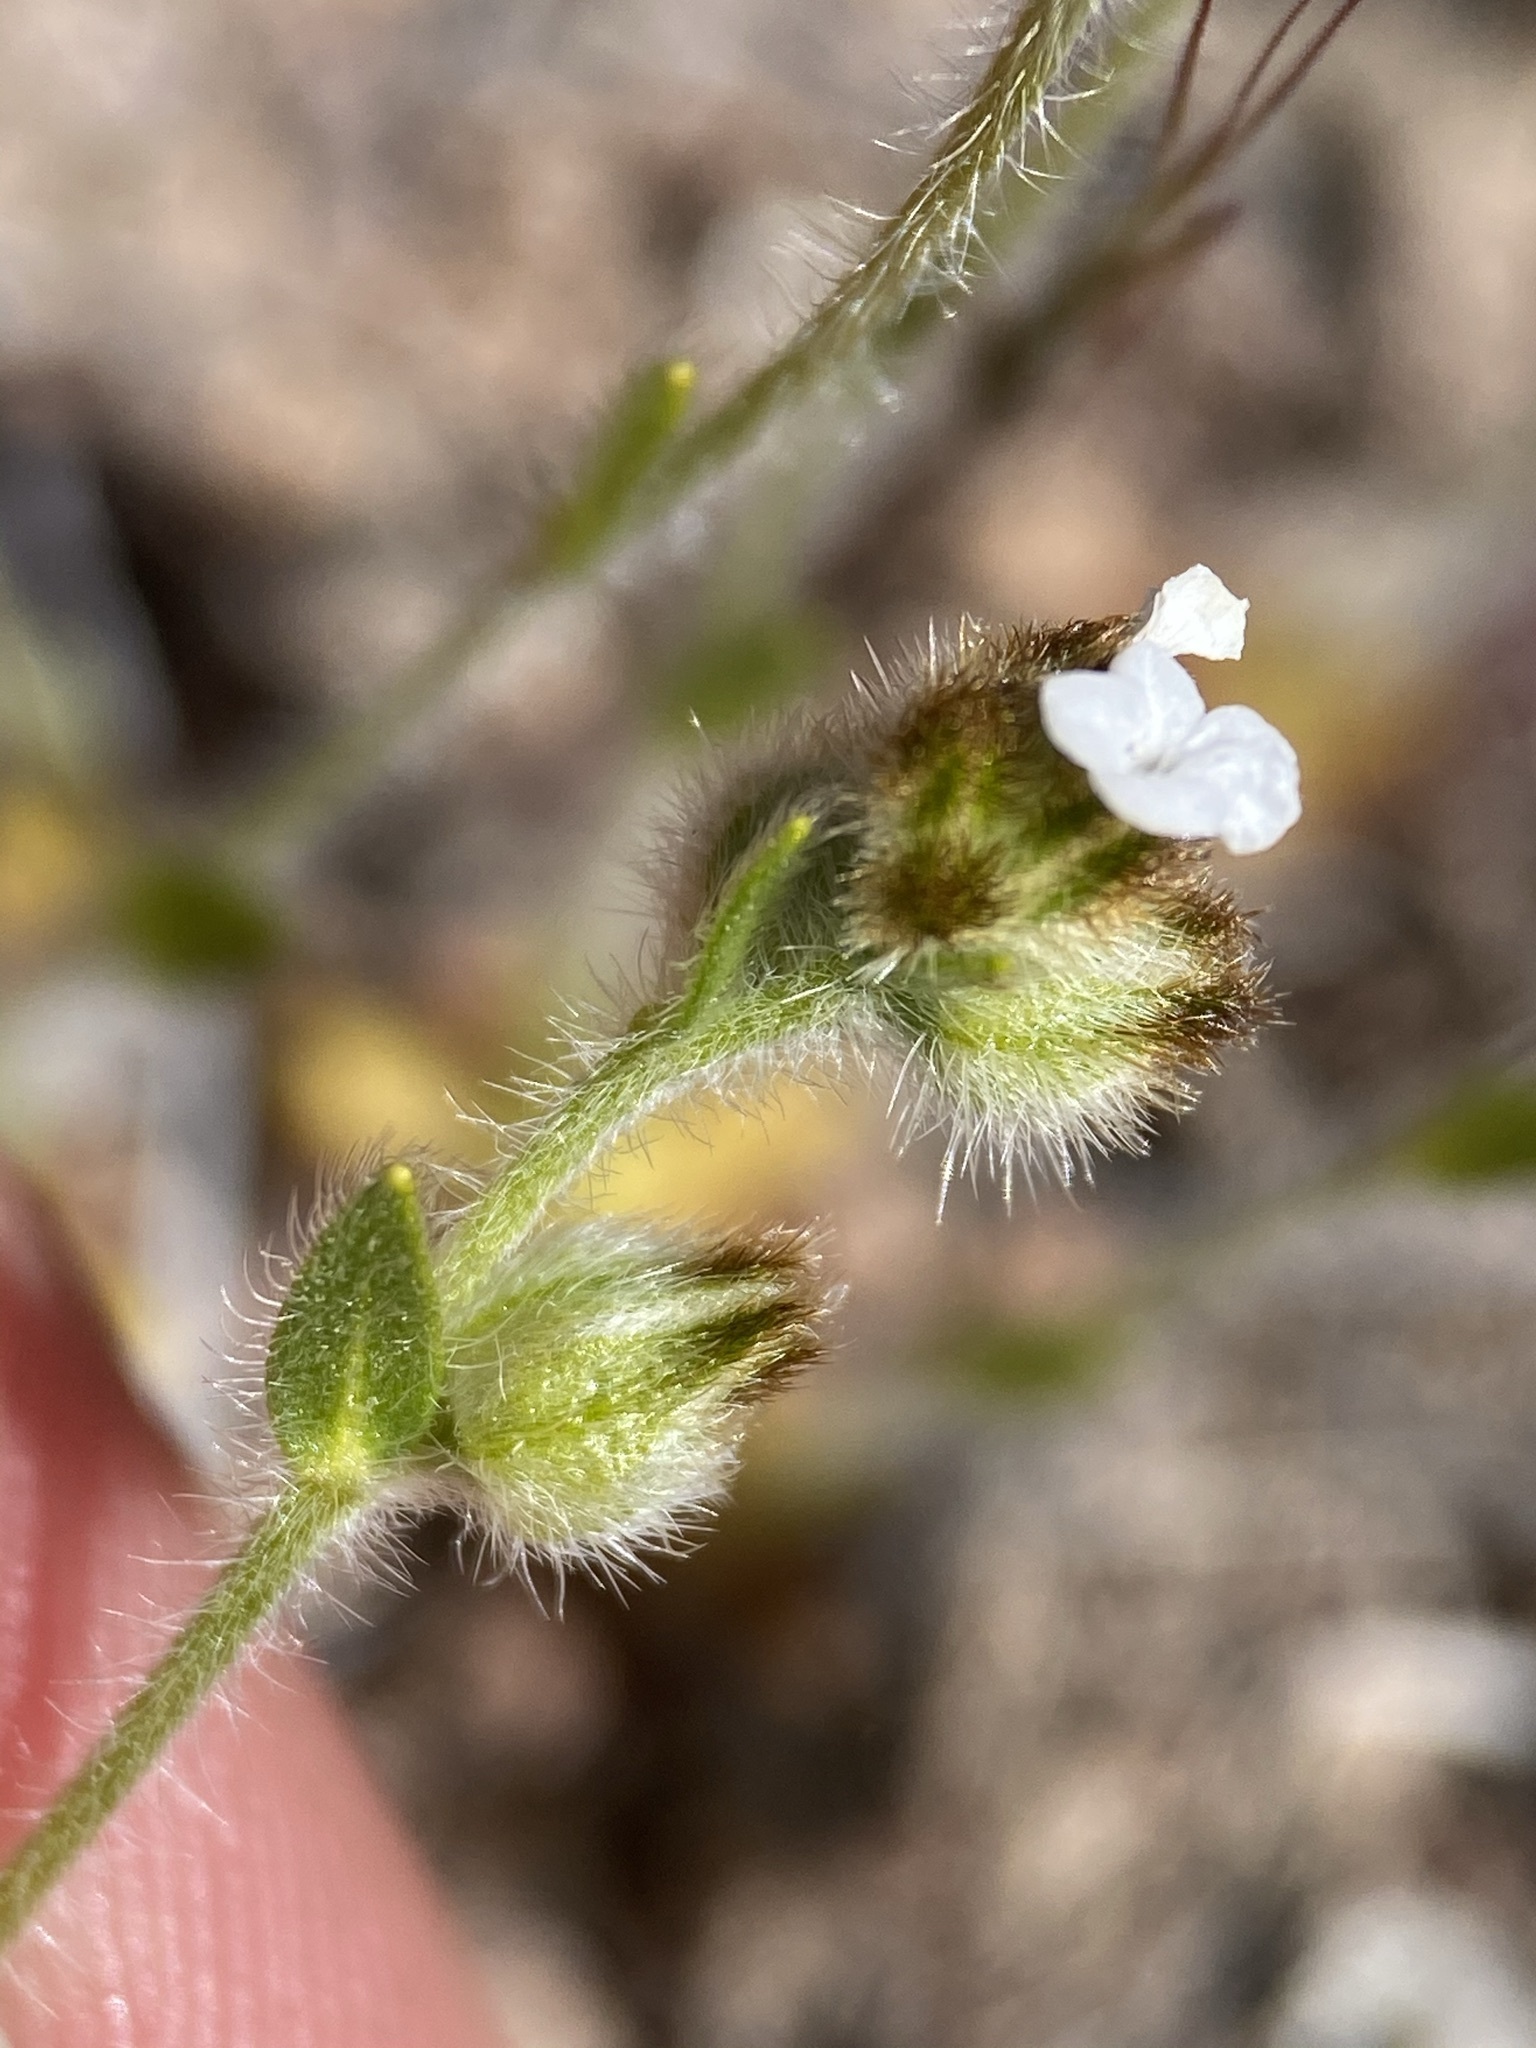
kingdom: Plantae
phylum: Tracheophyta
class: Magnoliopsida
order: Boraginales
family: Boraginaceae
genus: Plagiobothrys
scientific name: Plagiobothrys tenellus
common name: Pacific popcornflower
